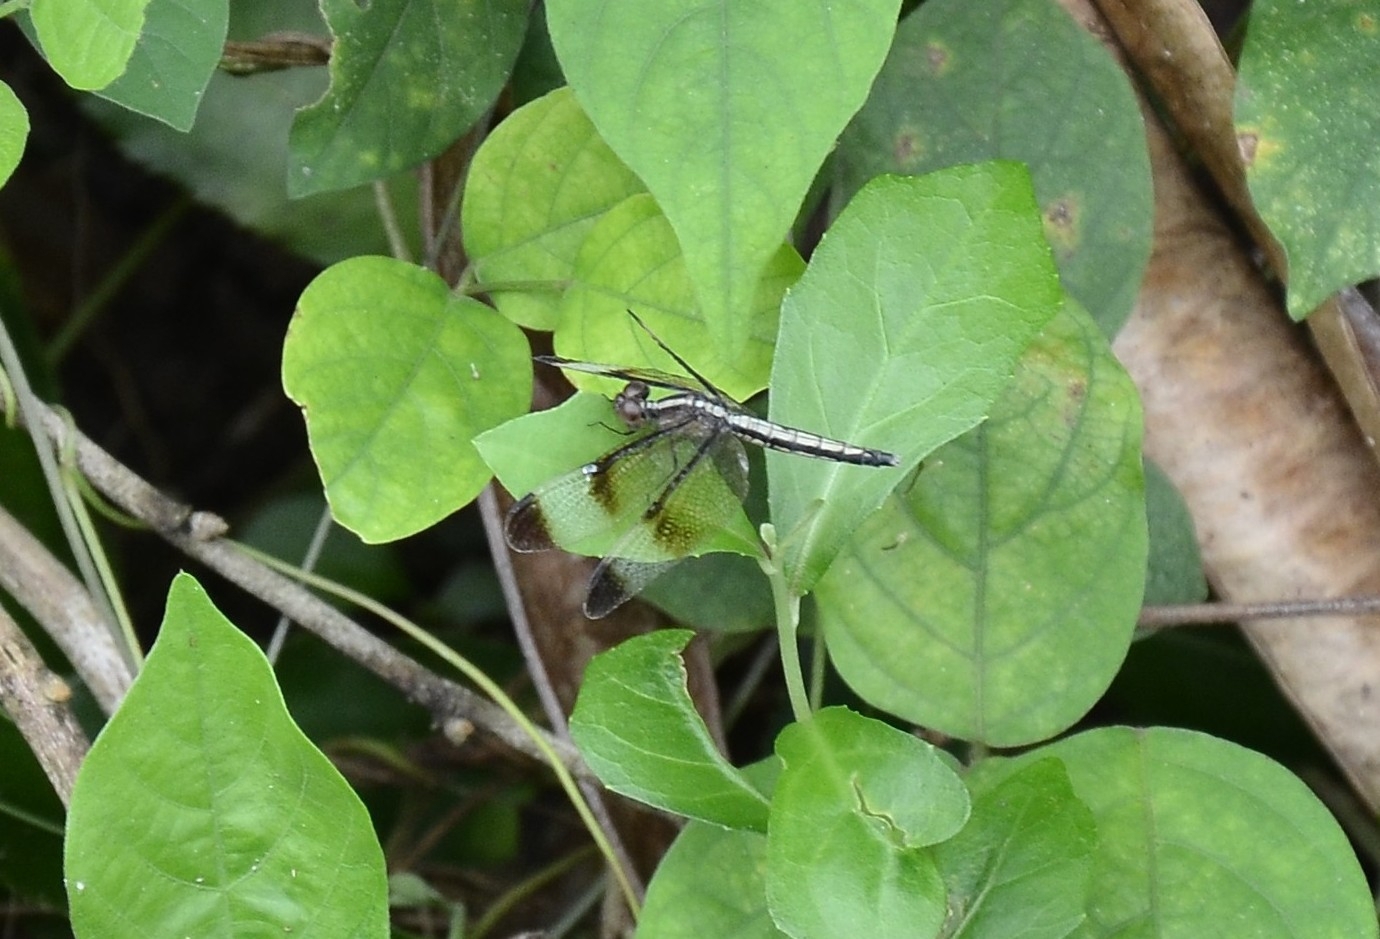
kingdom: Animalia
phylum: Arthropoda
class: Insecta
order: Odonata
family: Libellulidae
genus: Neurothemis
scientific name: Neurothemis tullia
